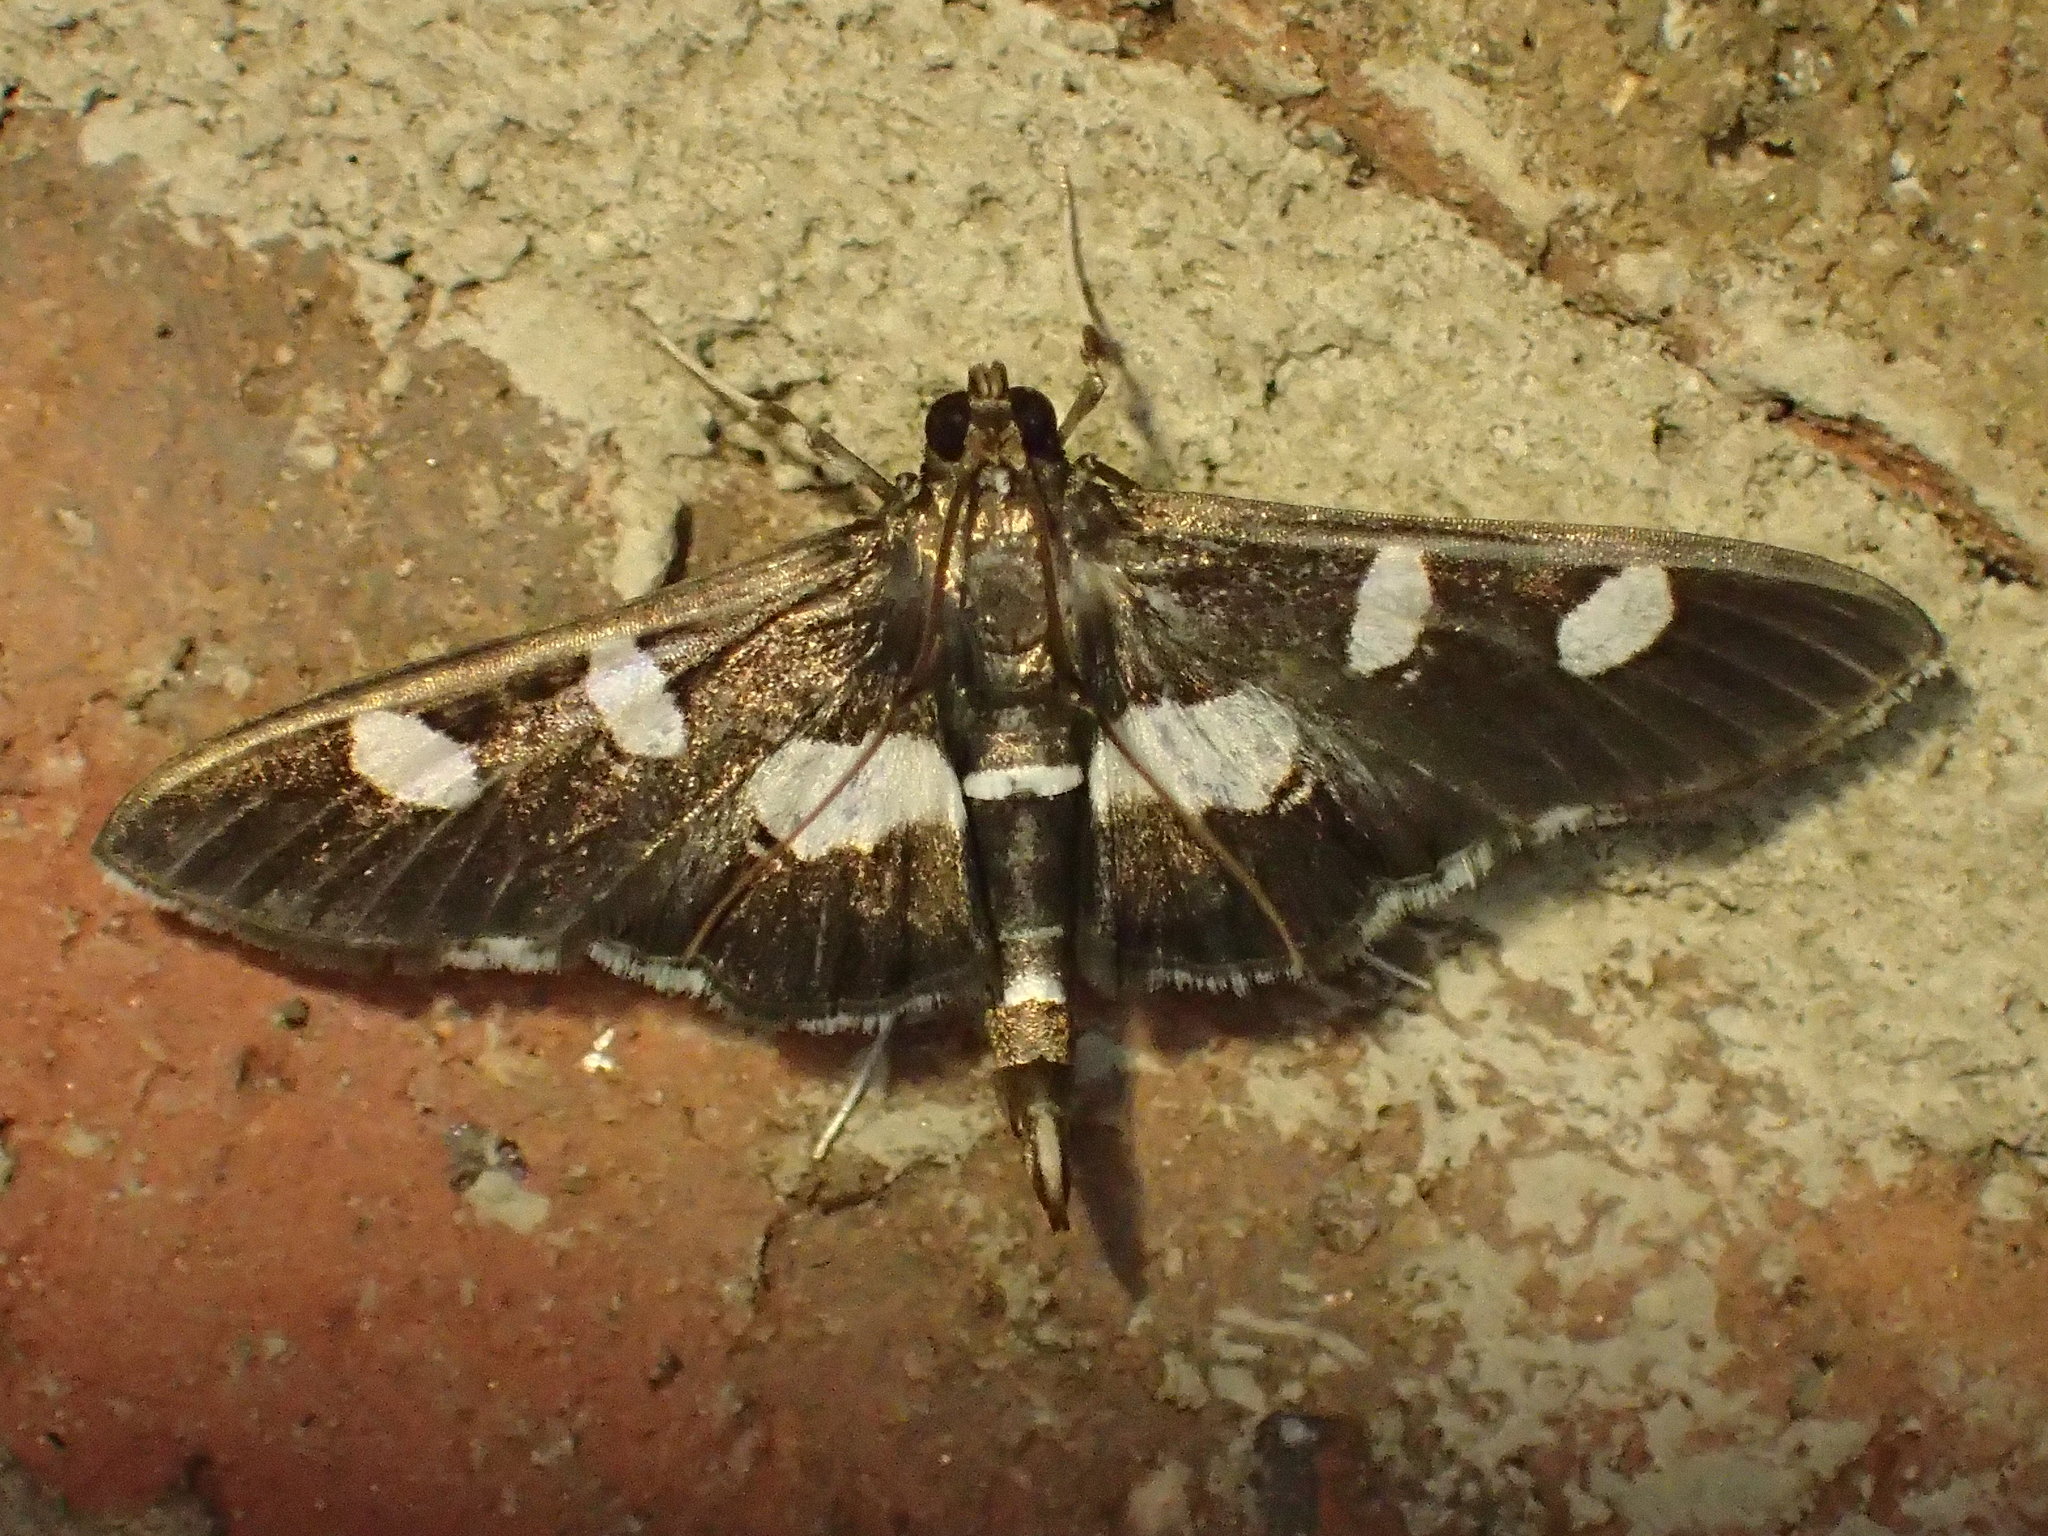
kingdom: Animalia
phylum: Arthropoda
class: Insecta
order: Lepidoptera
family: Crambidae
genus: Desmia
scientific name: Desmia funeralis
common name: Grape leaf folder moth
